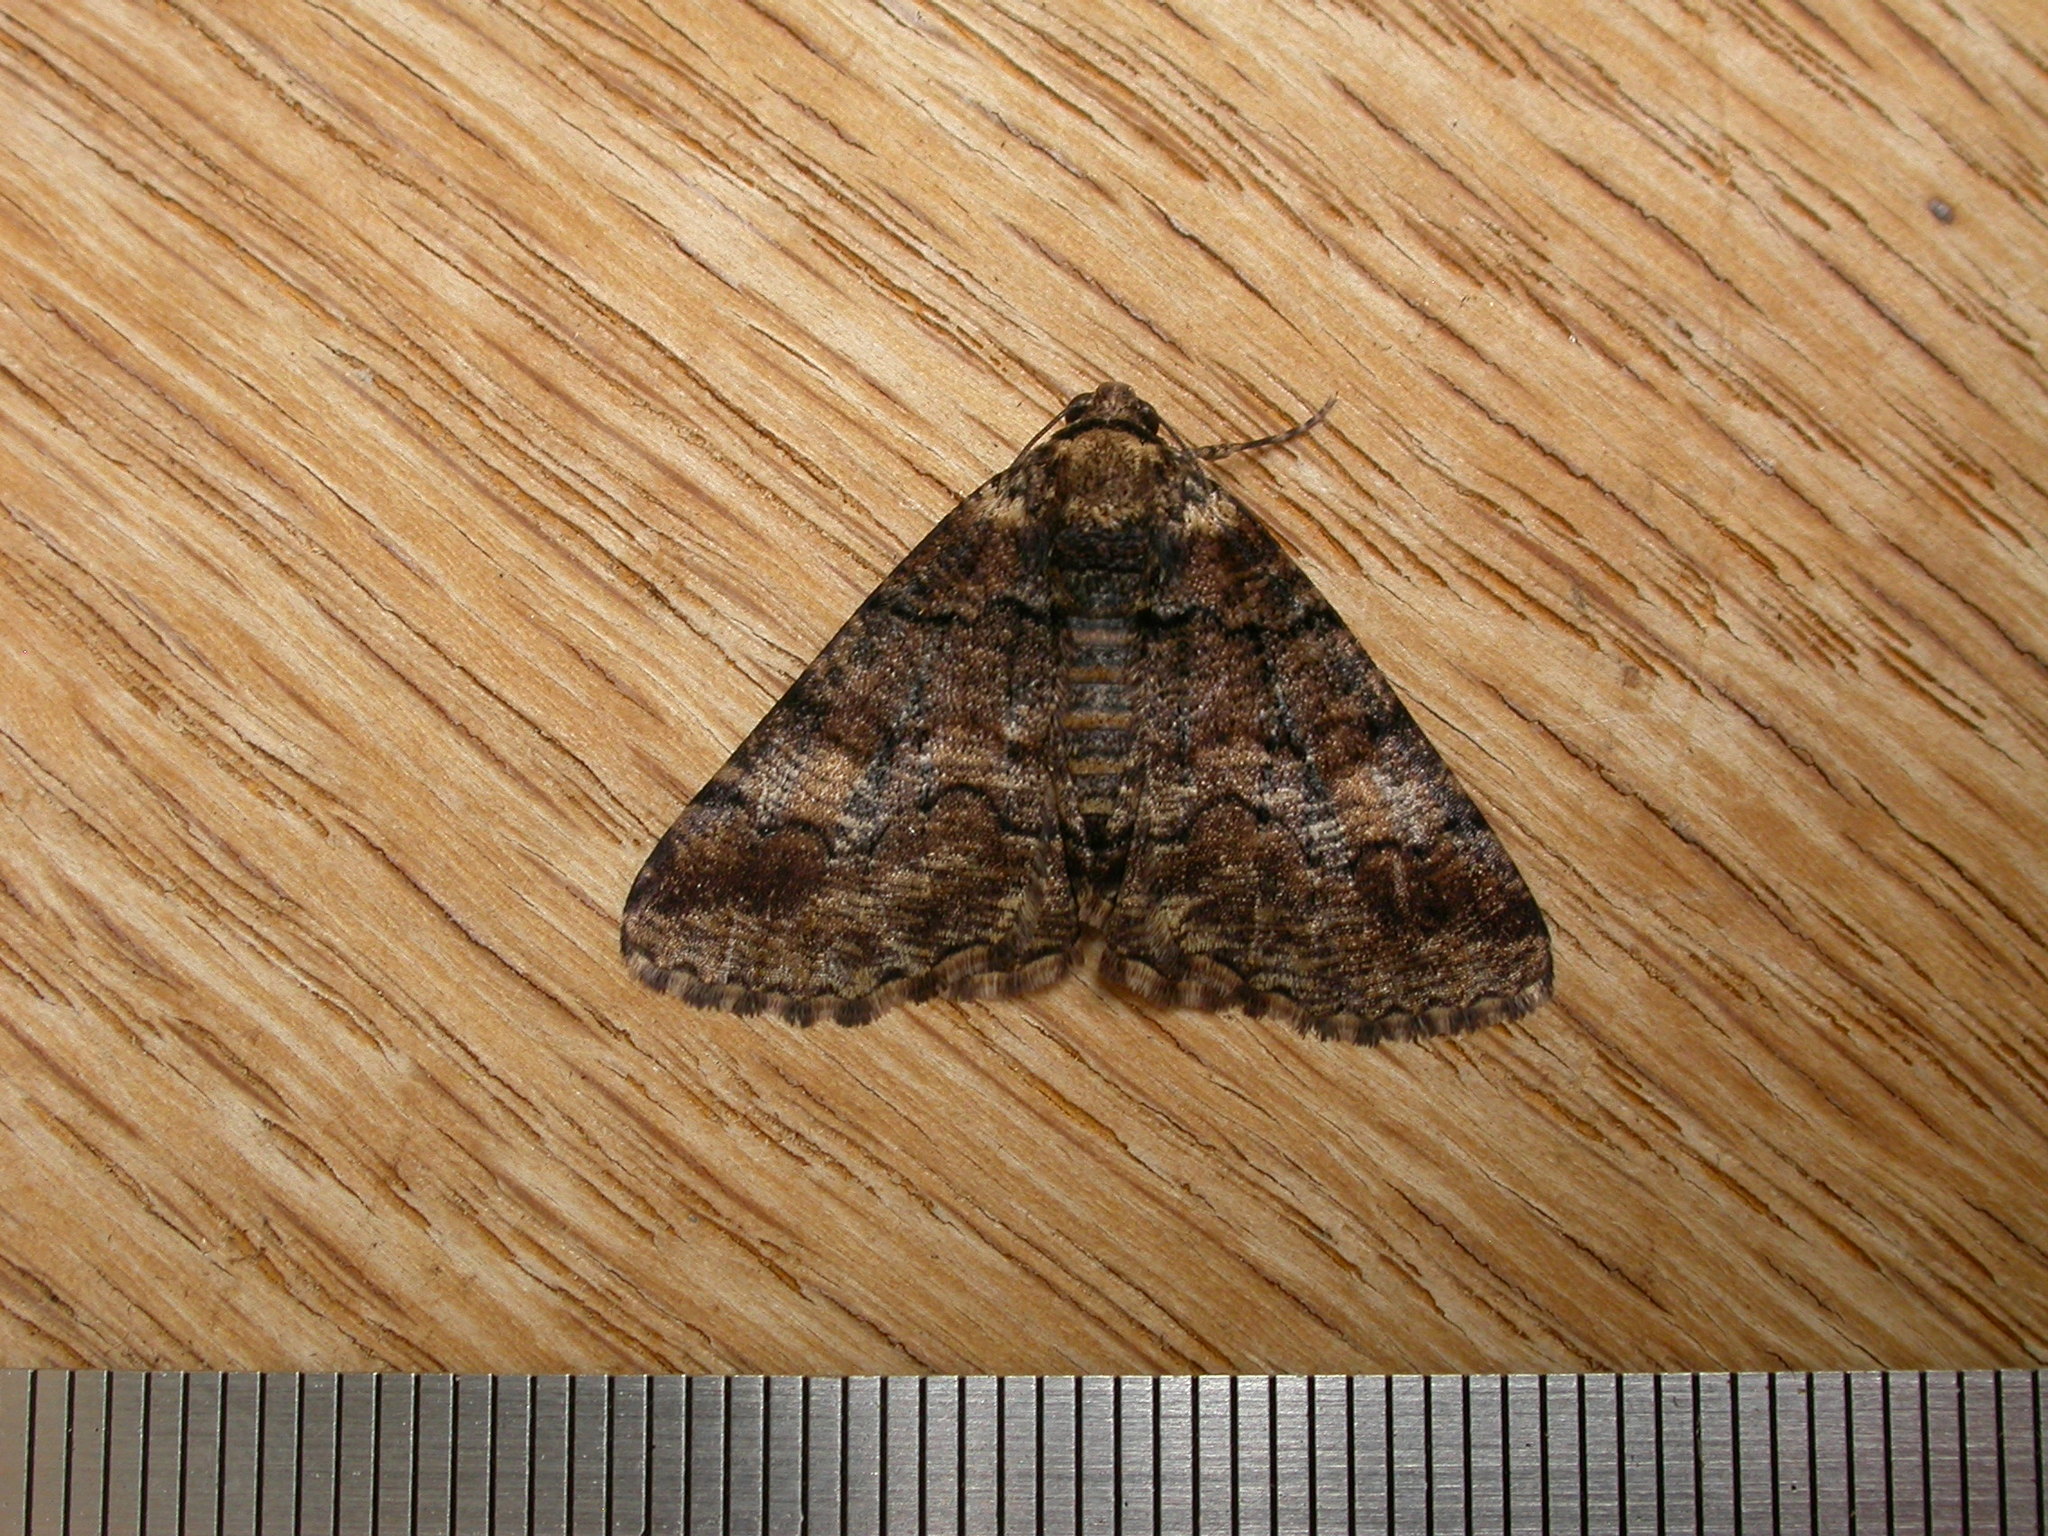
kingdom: Animalia
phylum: Arthropoda
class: Insecta
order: Lepidoptera
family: Geometridae
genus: Cryphaea
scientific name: Cryphaea xylina
